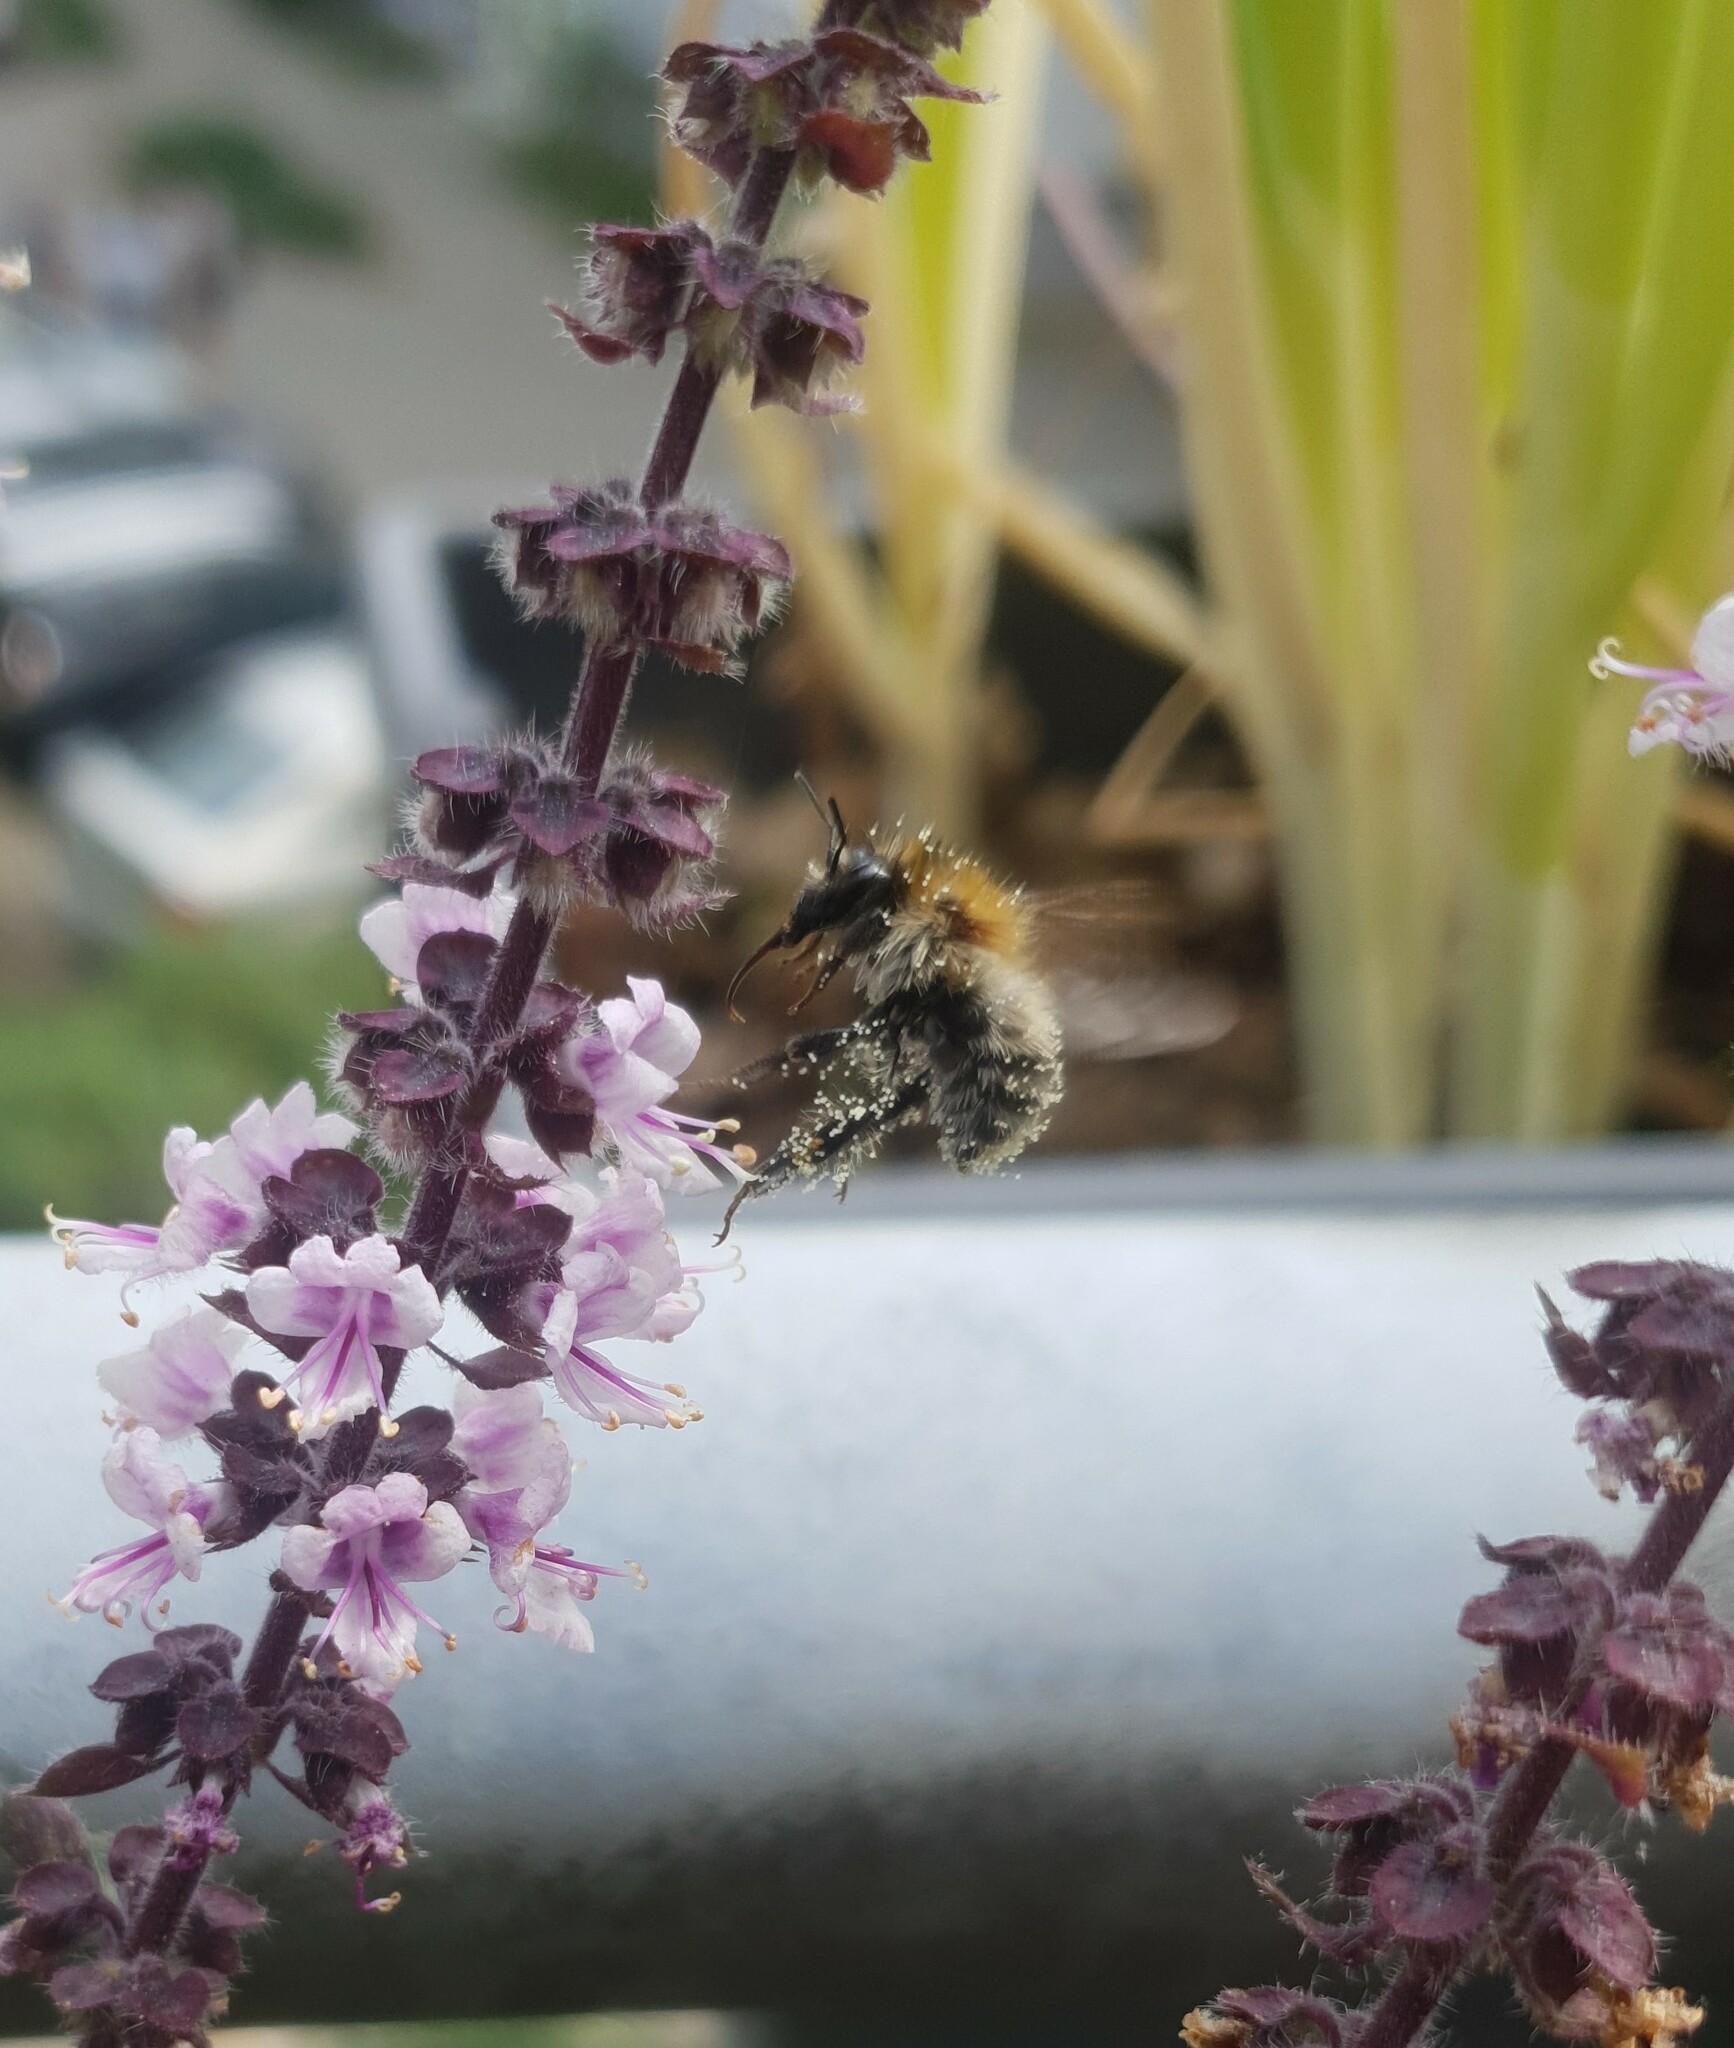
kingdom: Animalia
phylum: Arthropoda
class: Insecta
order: Hymenoptera
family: Apidae
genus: Bombus
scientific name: Bombus pascuorum
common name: Common carder bee
